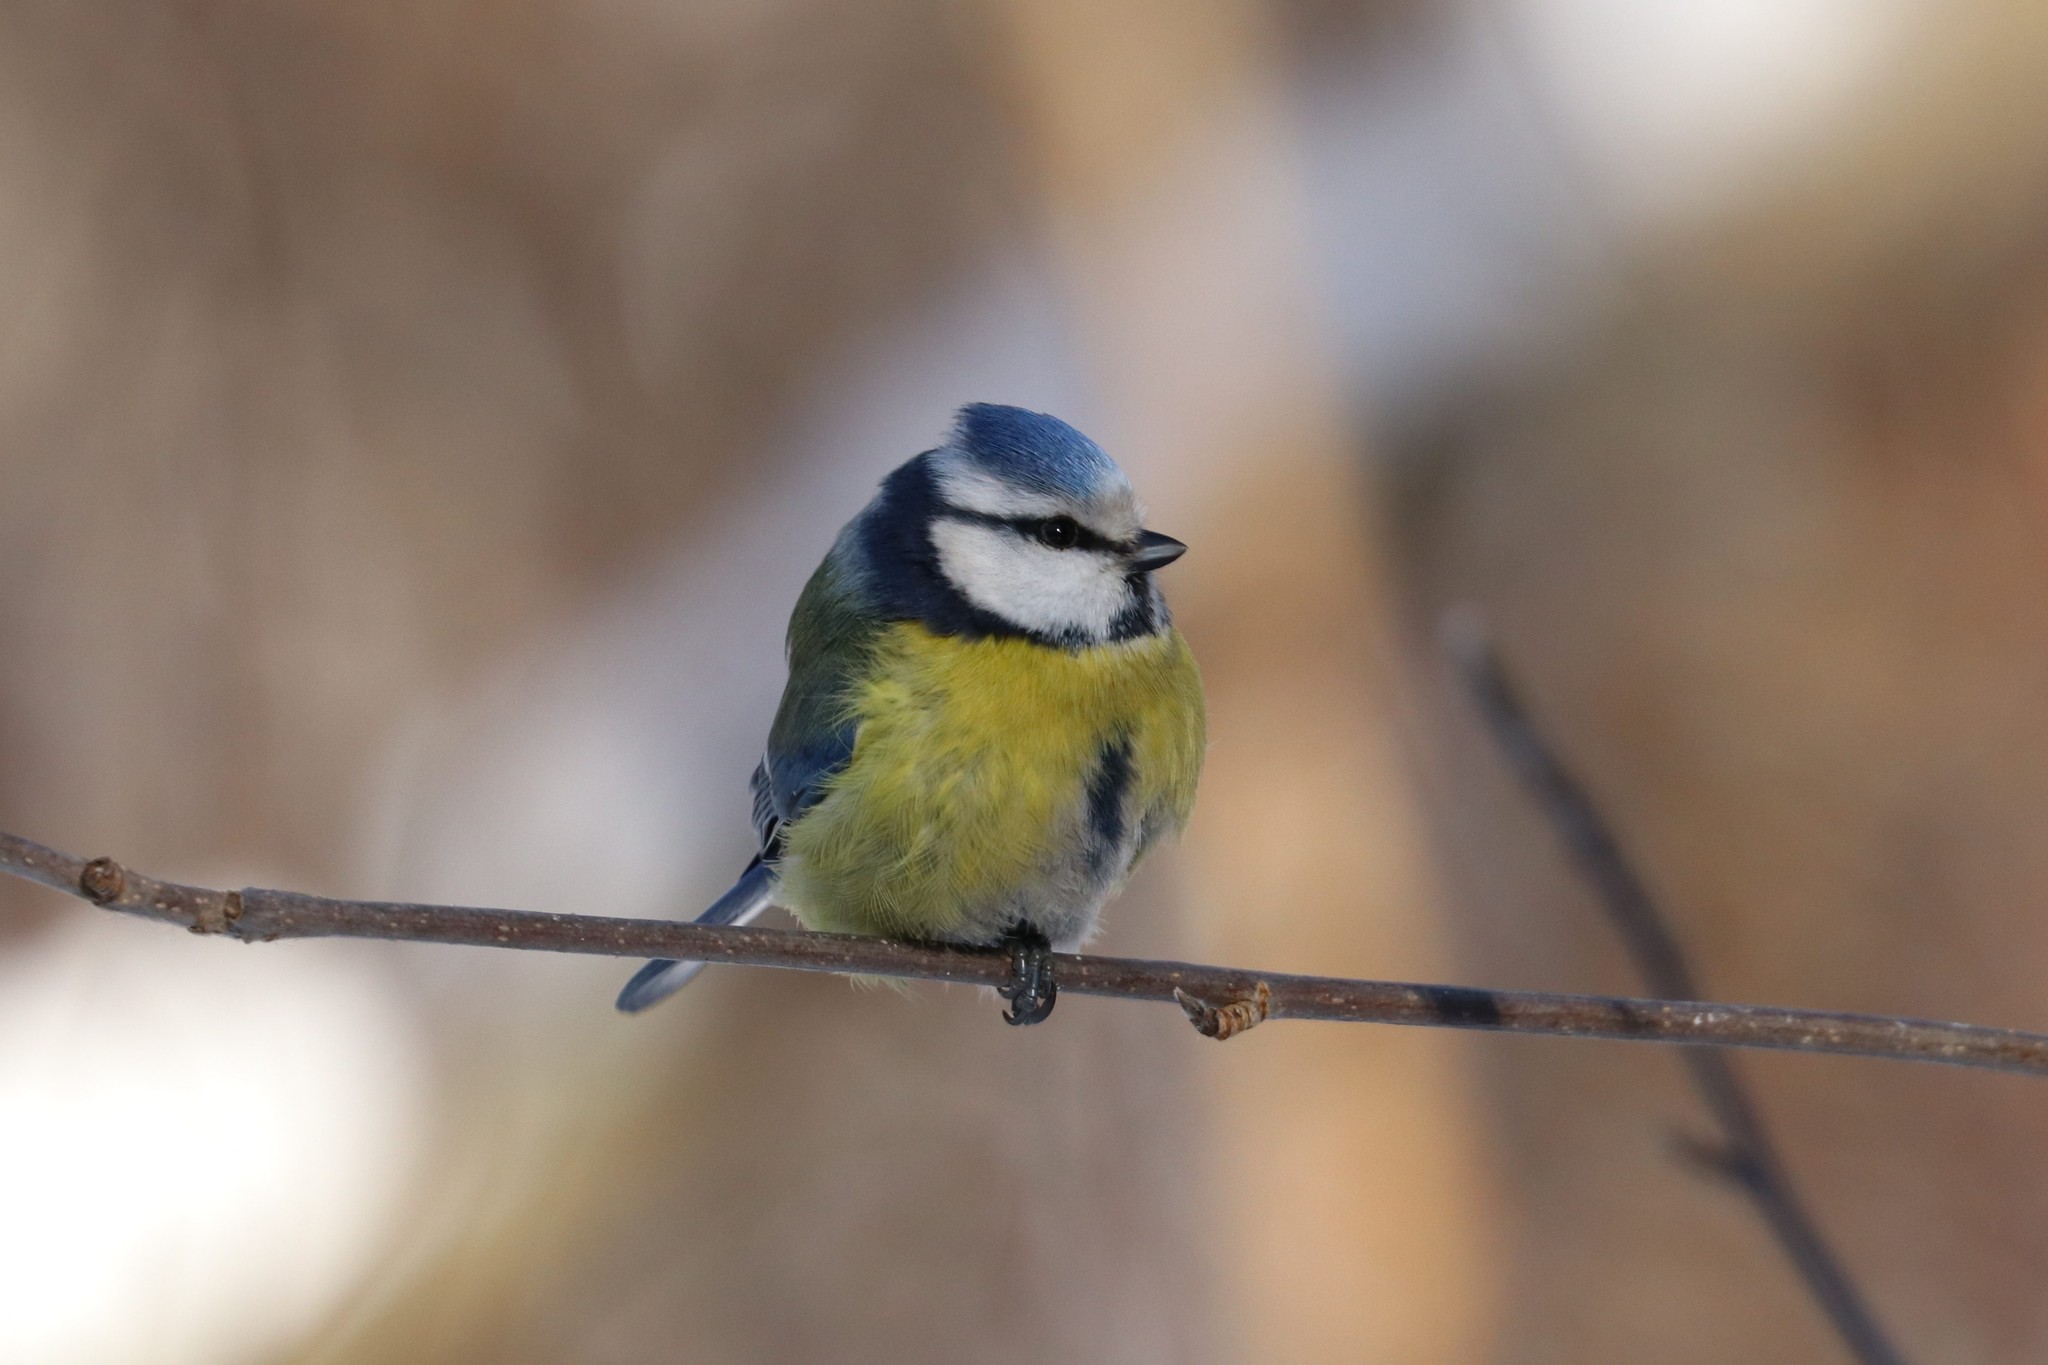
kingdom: Animalia
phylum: Chordata
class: Aves
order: Passeriformes
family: Paridae
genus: Cyanistes
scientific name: Cyanistes caeruleus
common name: Eurasian blue tit
